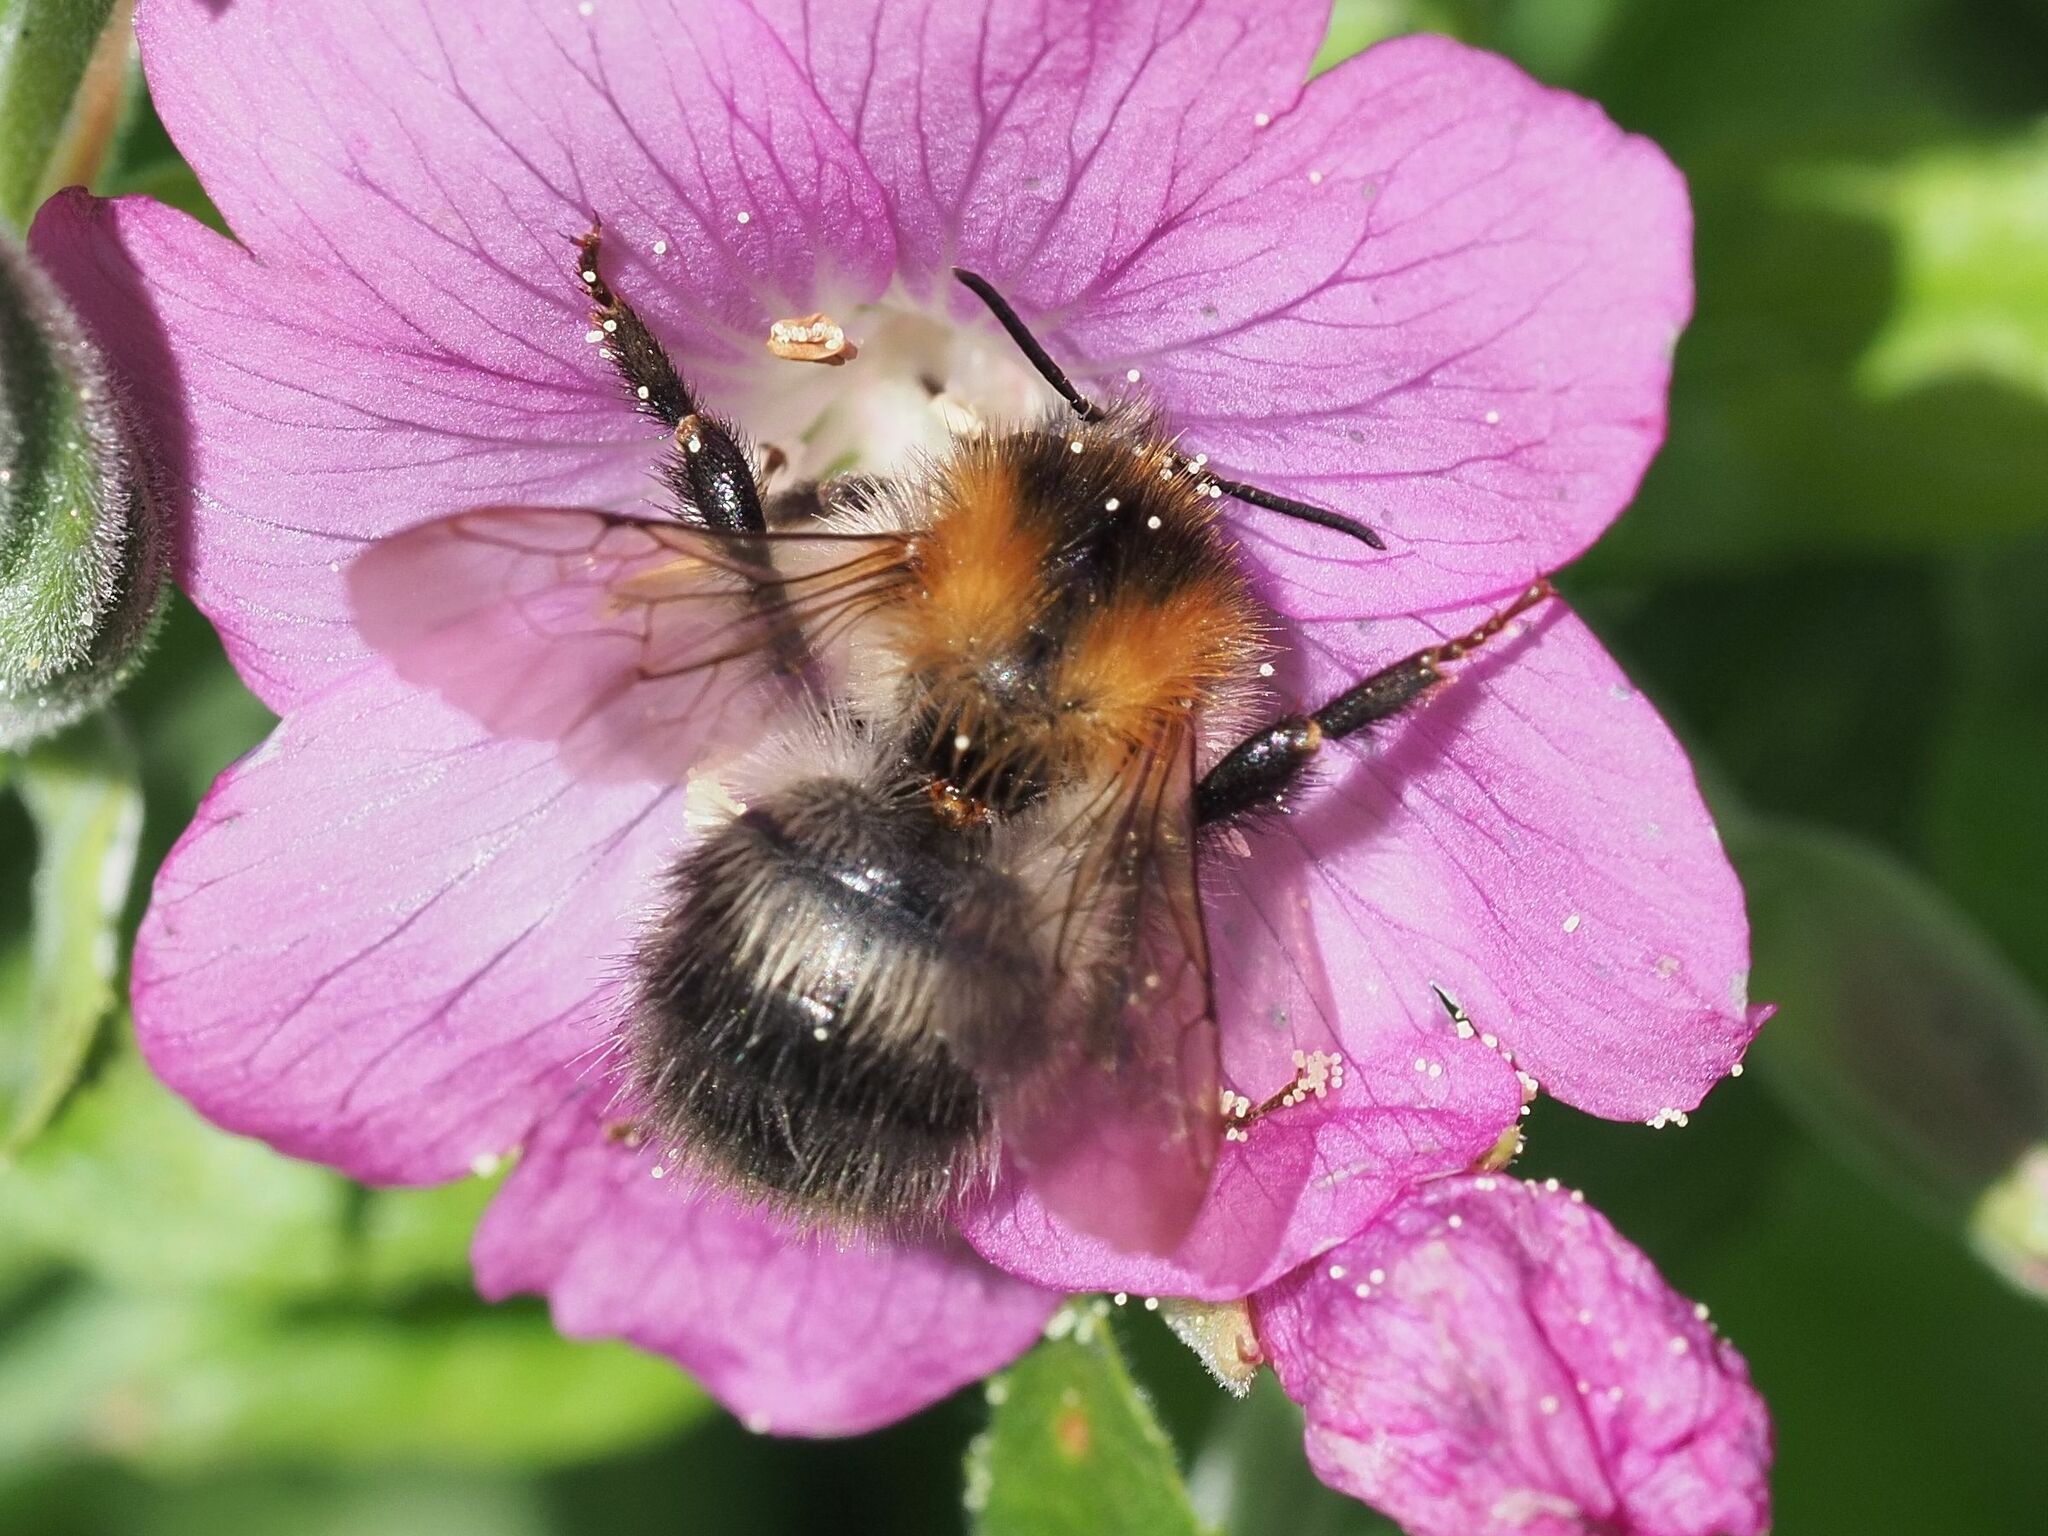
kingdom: Animalia
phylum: Arthropoda
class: Insecta
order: Hymenoptera
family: Apidae
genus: Bombus
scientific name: Bombus pascuorum
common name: Common carder bee
